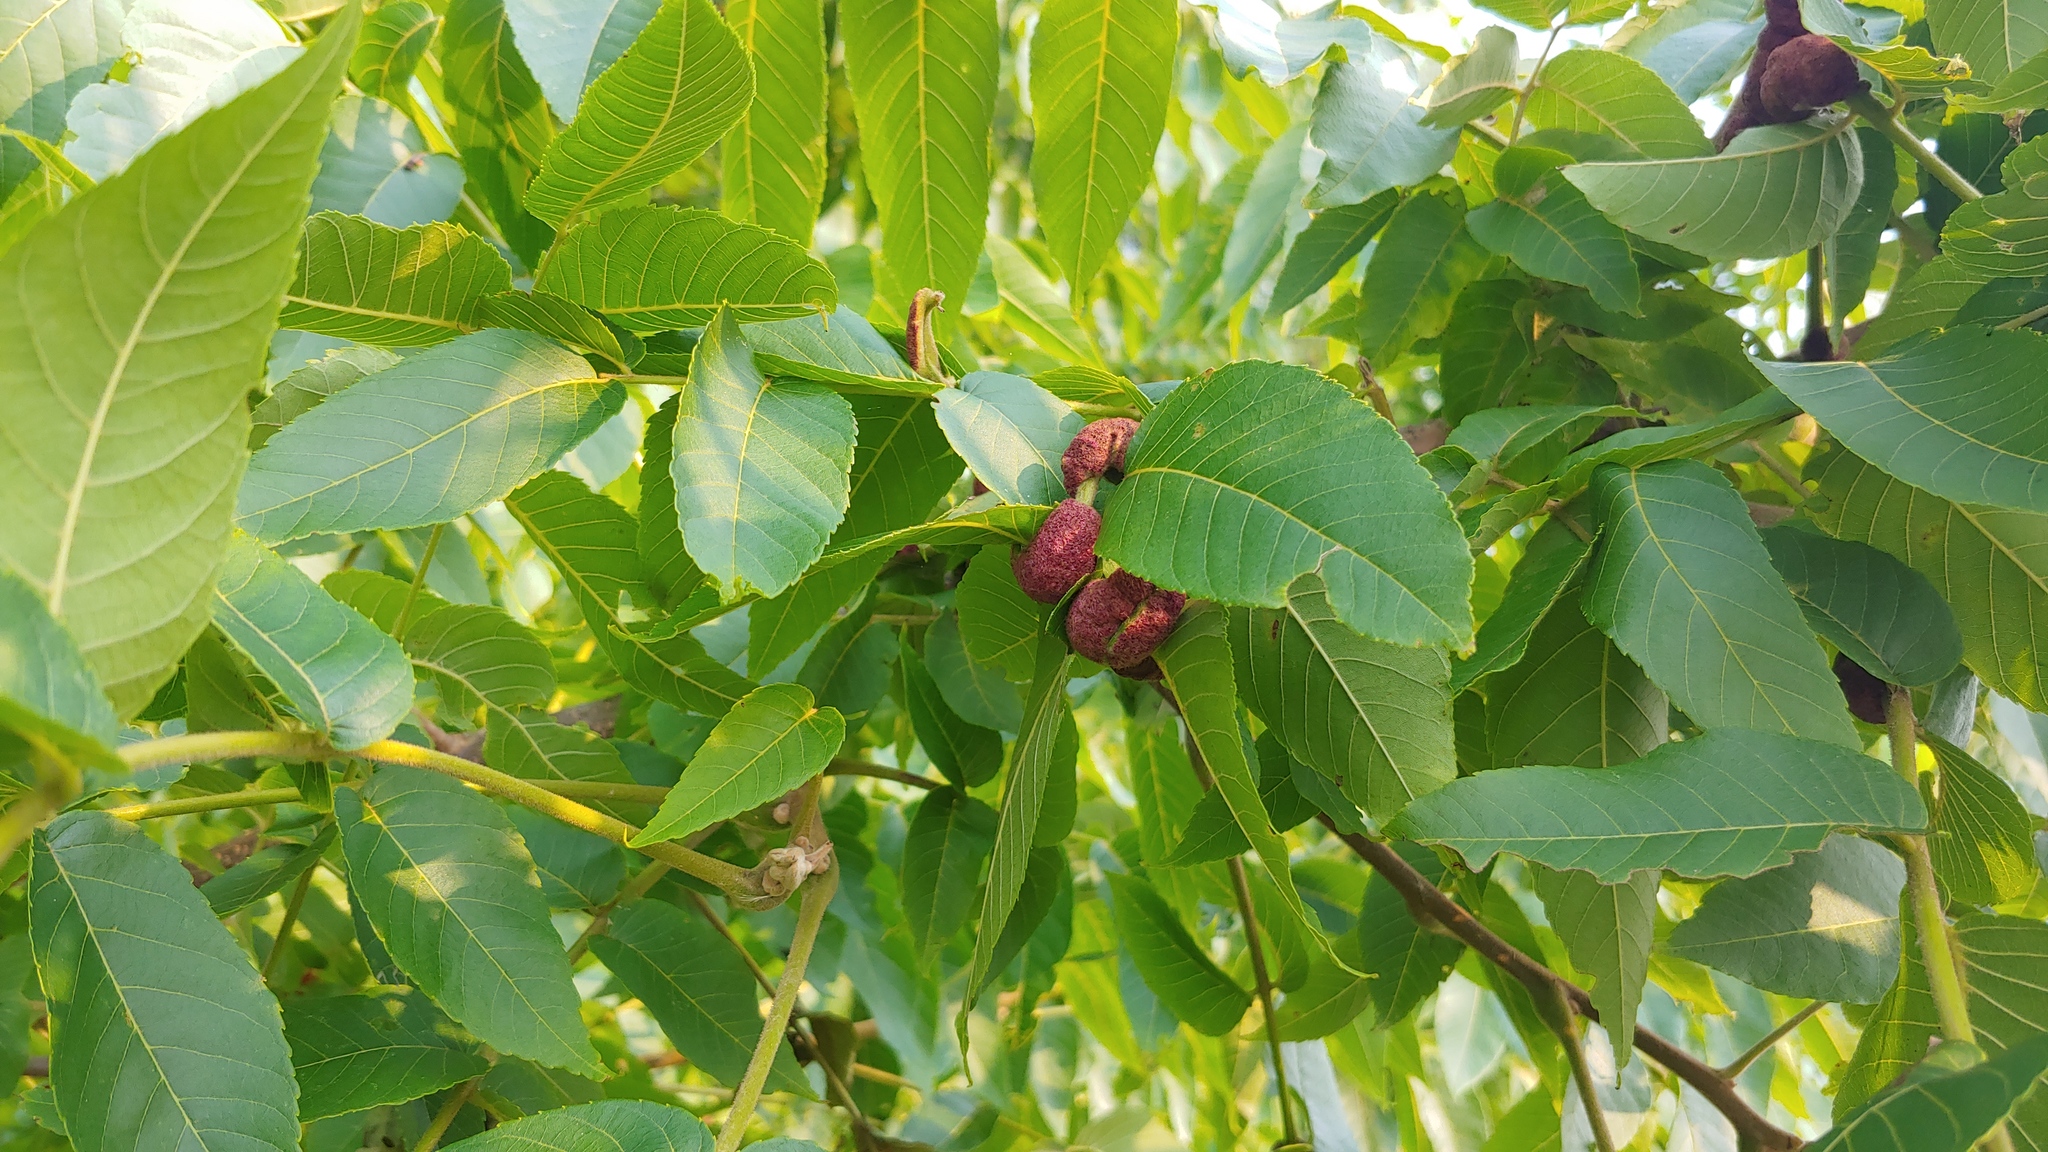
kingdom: Animalia
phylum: Arthropoda
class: Arachnida
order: Trombidiformes
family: Eriophyidae
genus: Aceria
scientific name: Aceria
